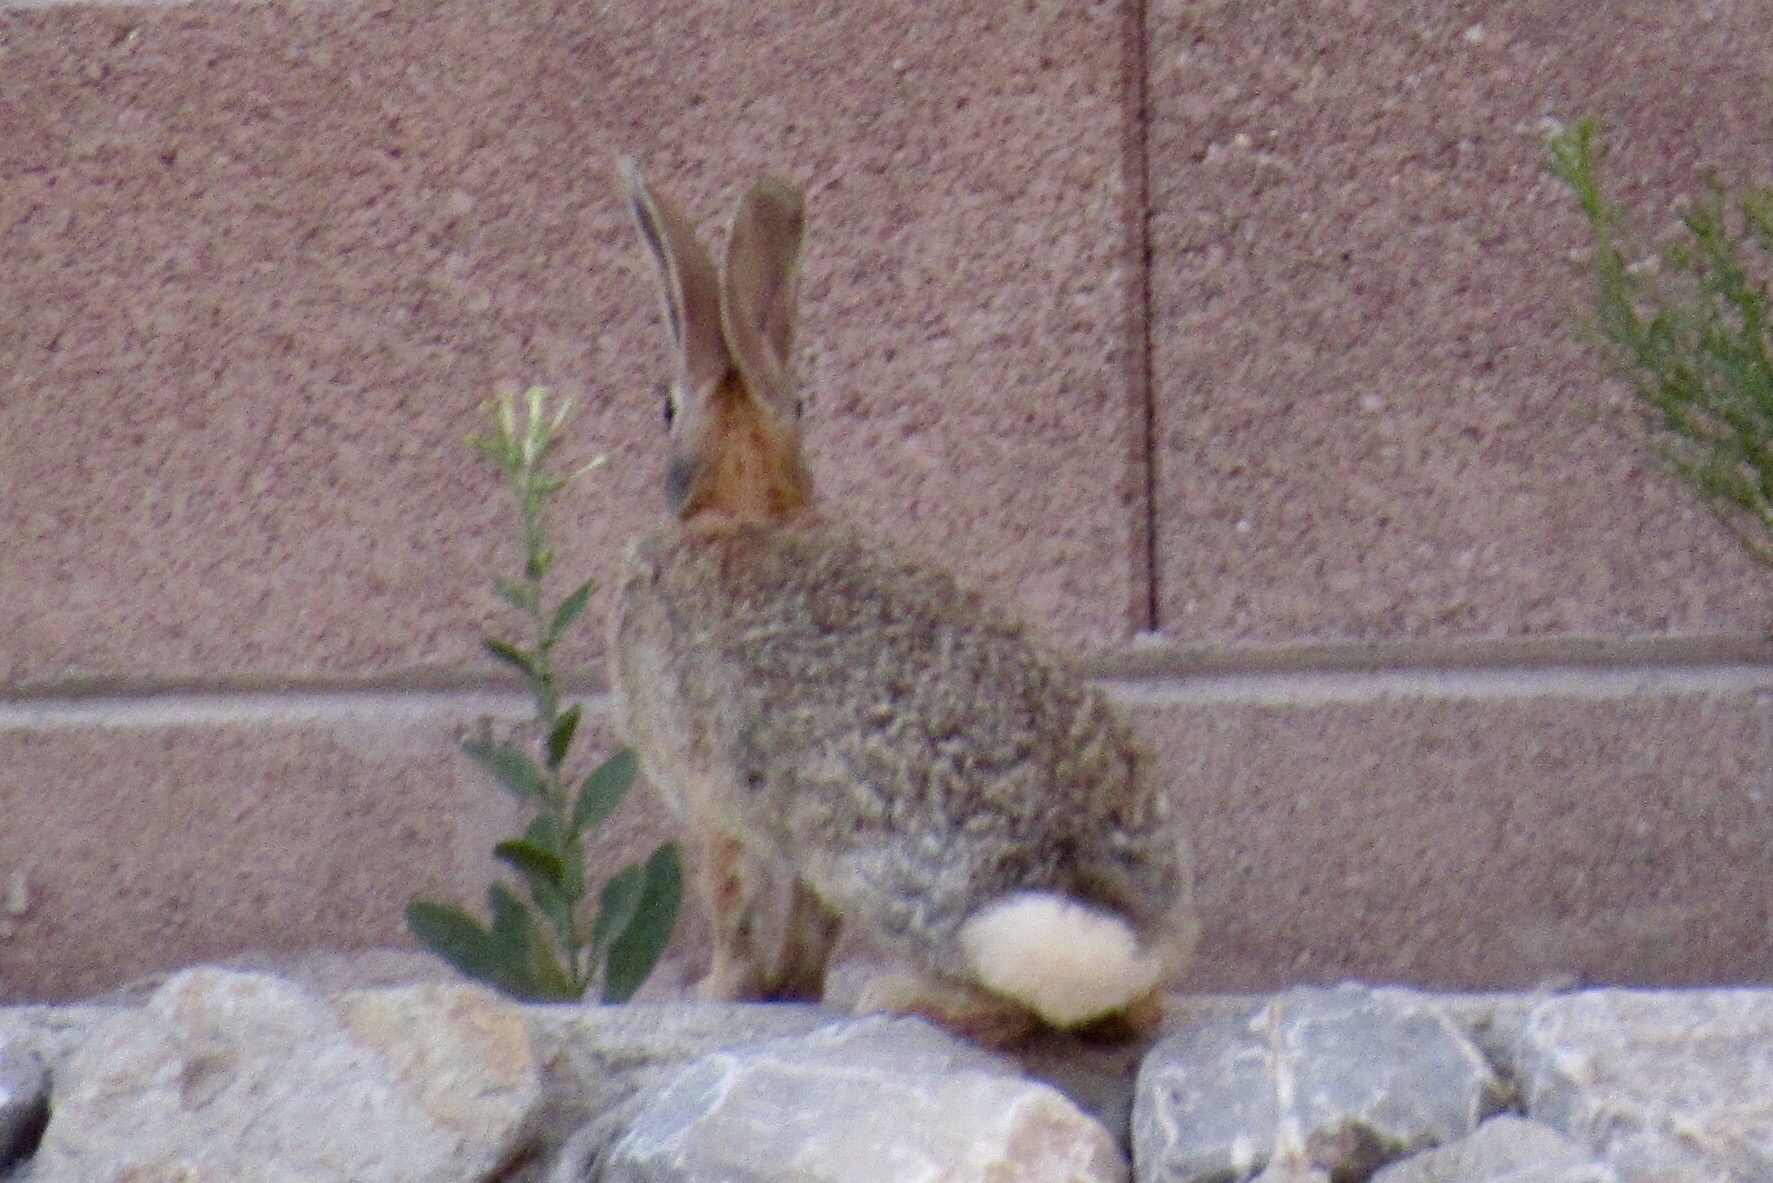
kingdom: Animalia
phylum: Chordata
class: Mammalia
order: Lagomorpha
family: Leporidae
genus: Sylvilagus
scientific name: Sylvilagus audubonii
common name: Desert cottontail
